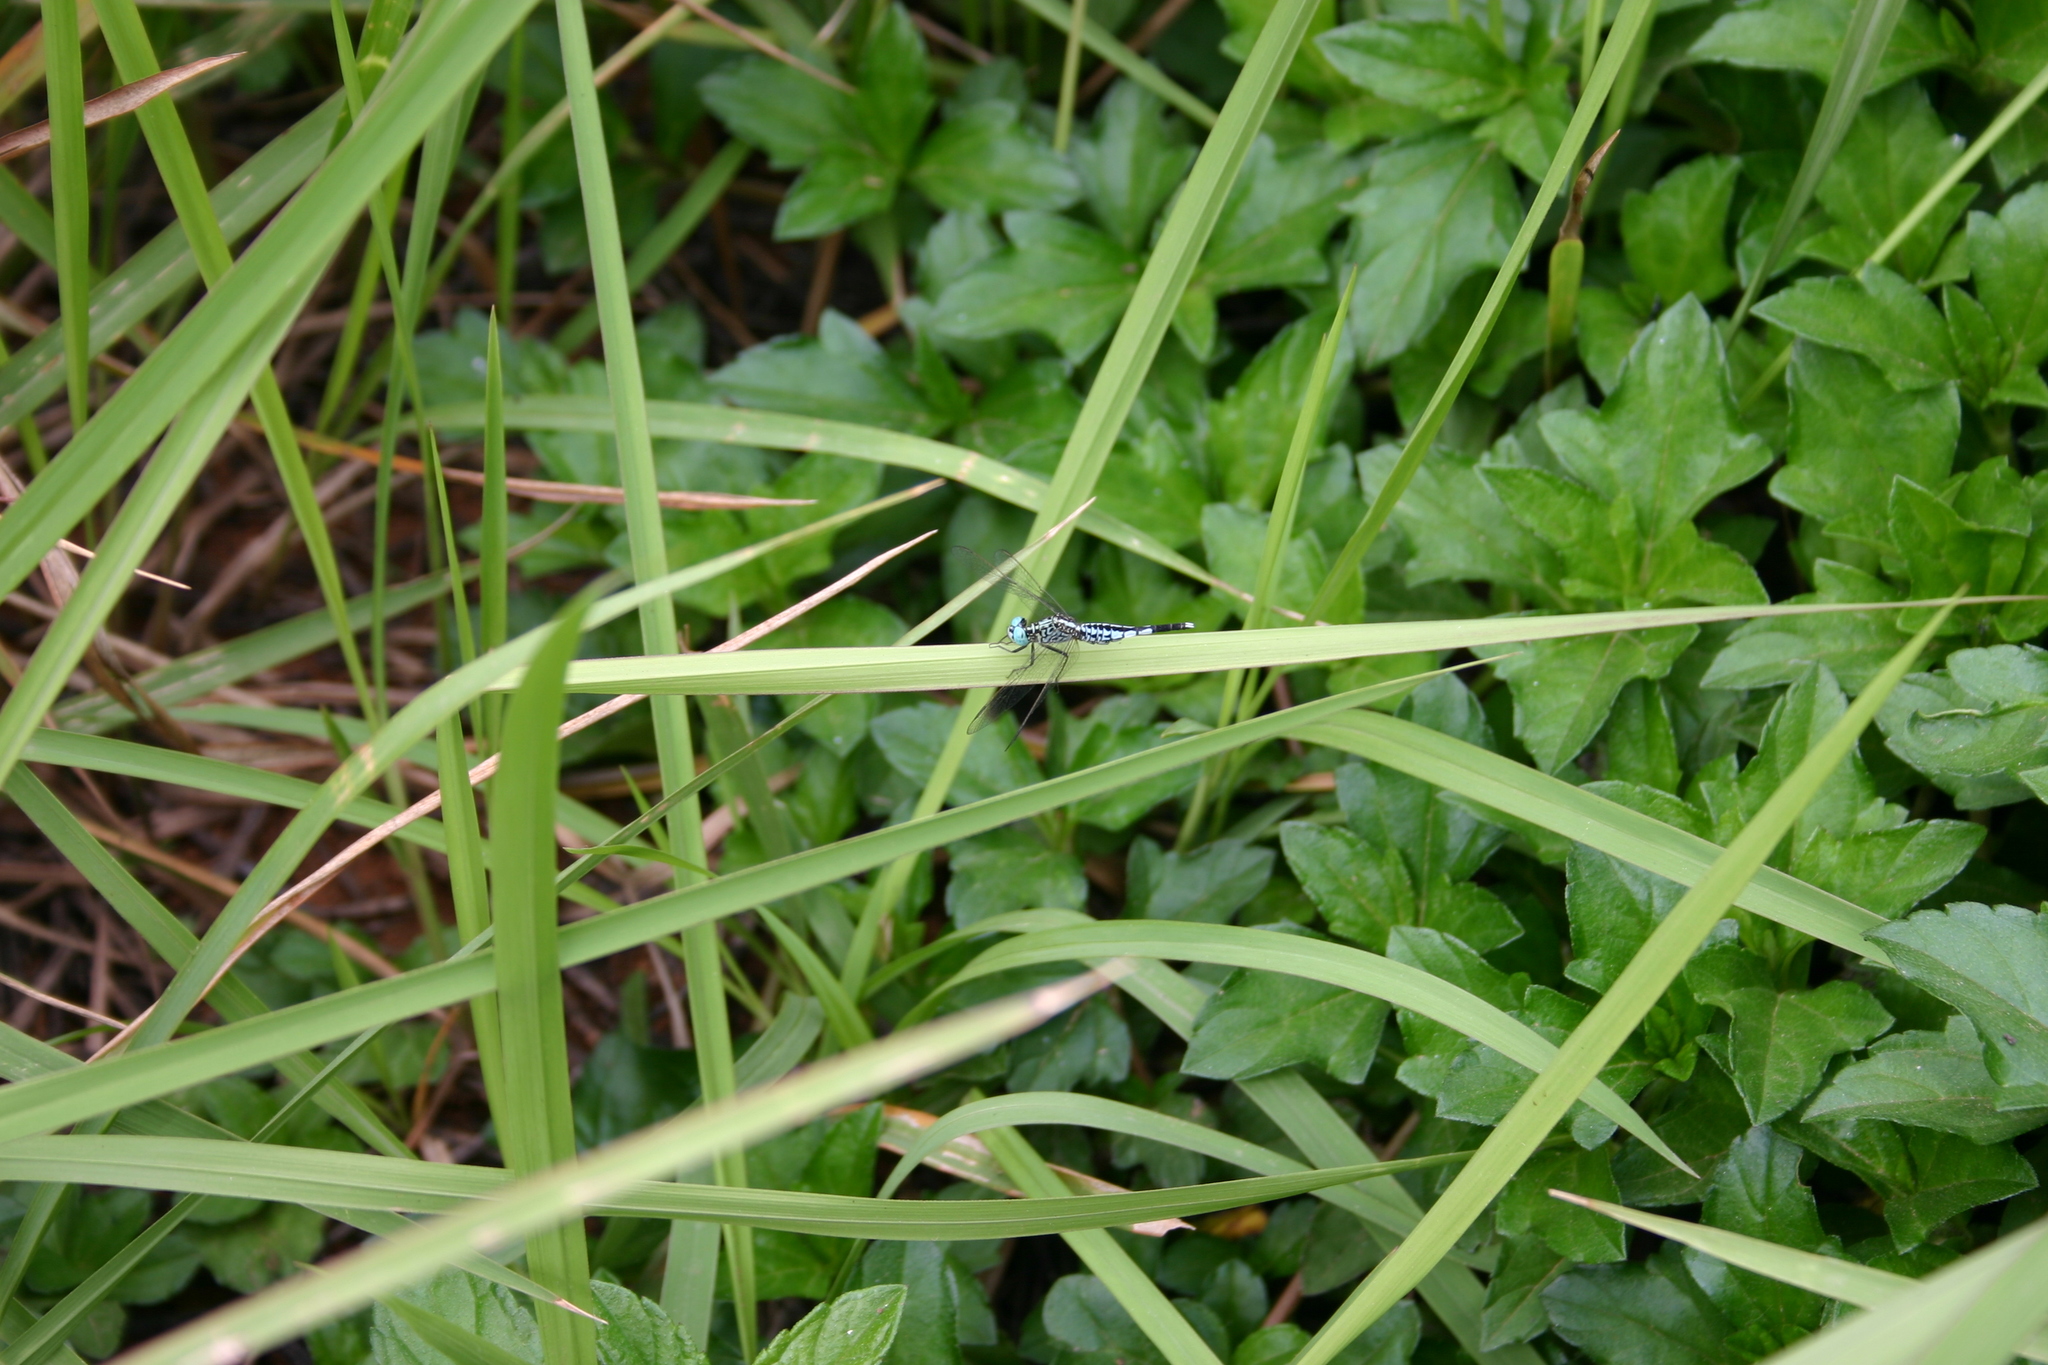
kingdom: Animalia
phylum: Arthropoda
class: Insecta
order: Odonata
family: Libellulidae
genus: Acisoma
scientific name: Acisoma panorpoides
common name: Asian pintail
